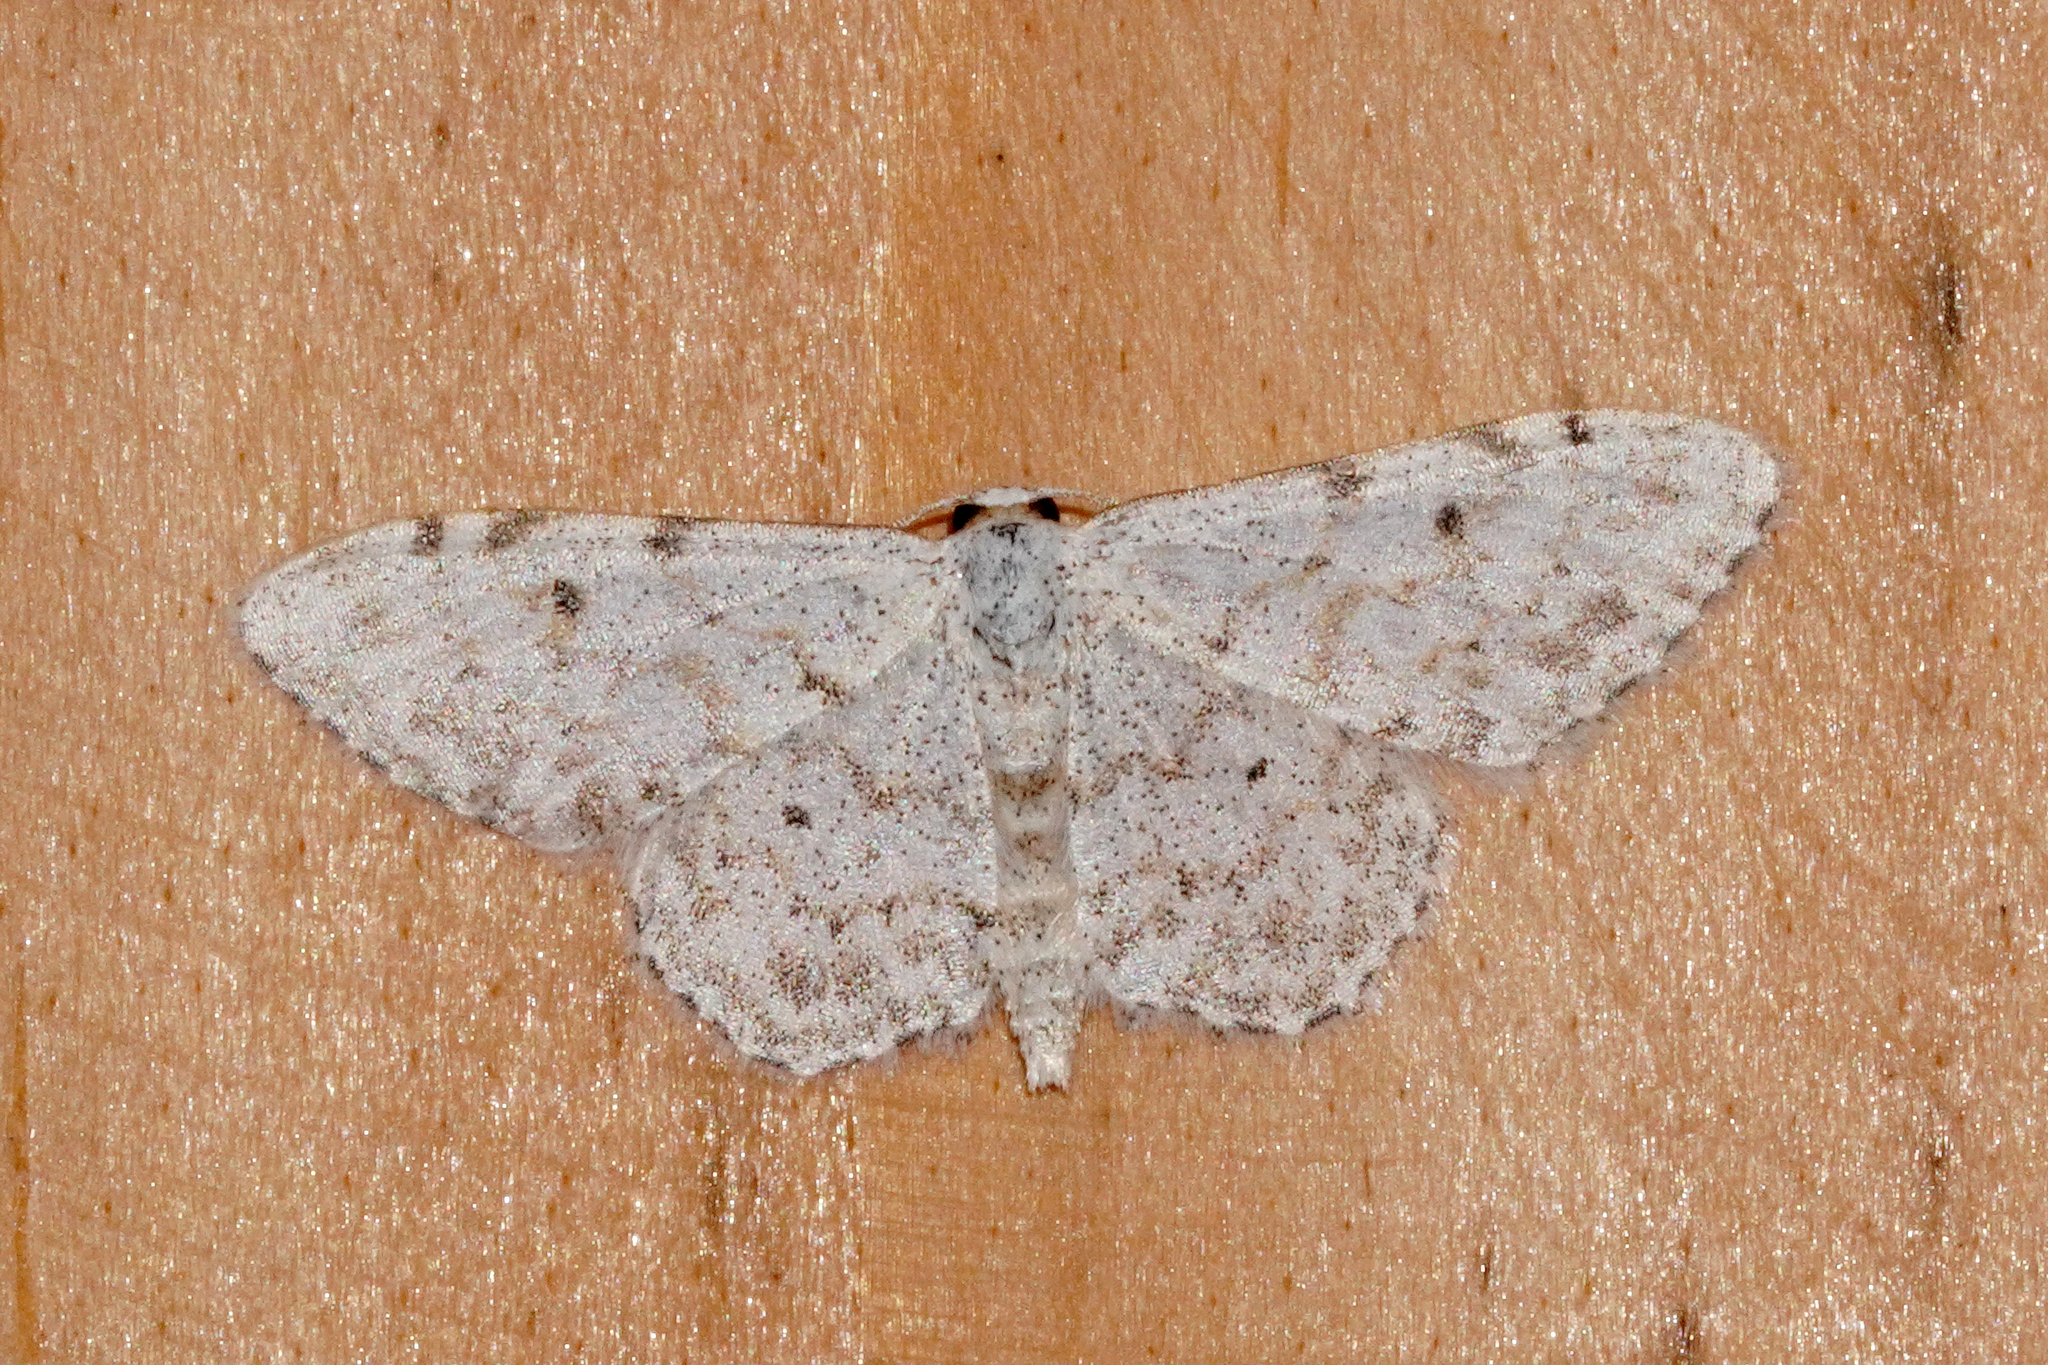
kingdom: Animalia
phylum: Arthropoda
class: Insecta
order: Lepidoptera
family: Geometridae
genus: Idaea
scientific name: Idaea camparia
